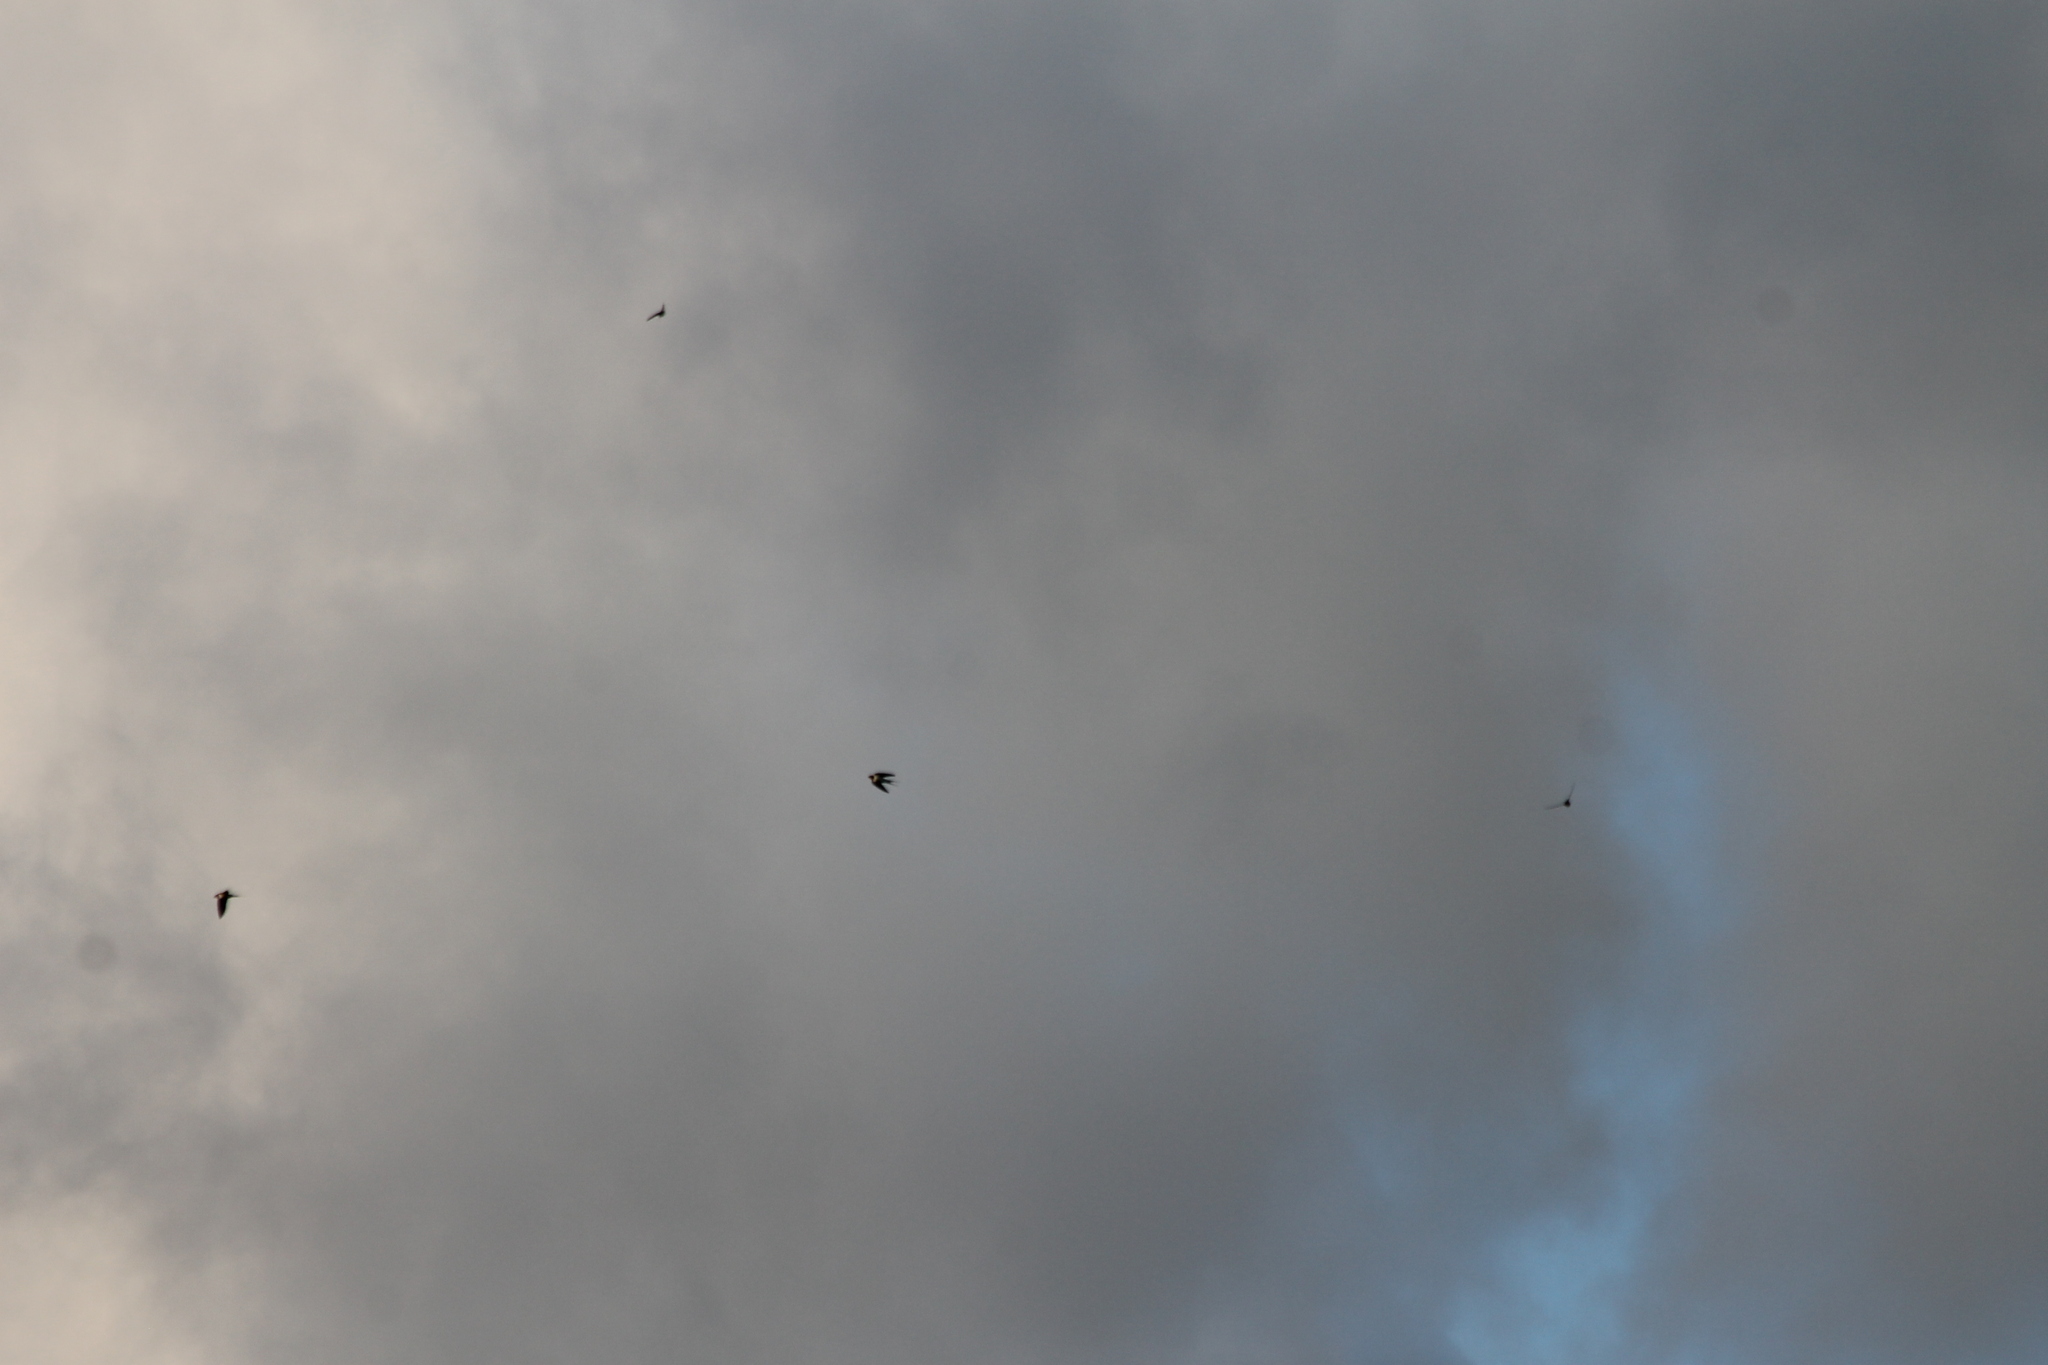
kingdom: Animalia
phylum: Chordata
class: Aves
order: Passeriformes
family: Hirundinidae
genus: Hirundo
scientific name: Hirundo rustica
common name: Barn swallow
